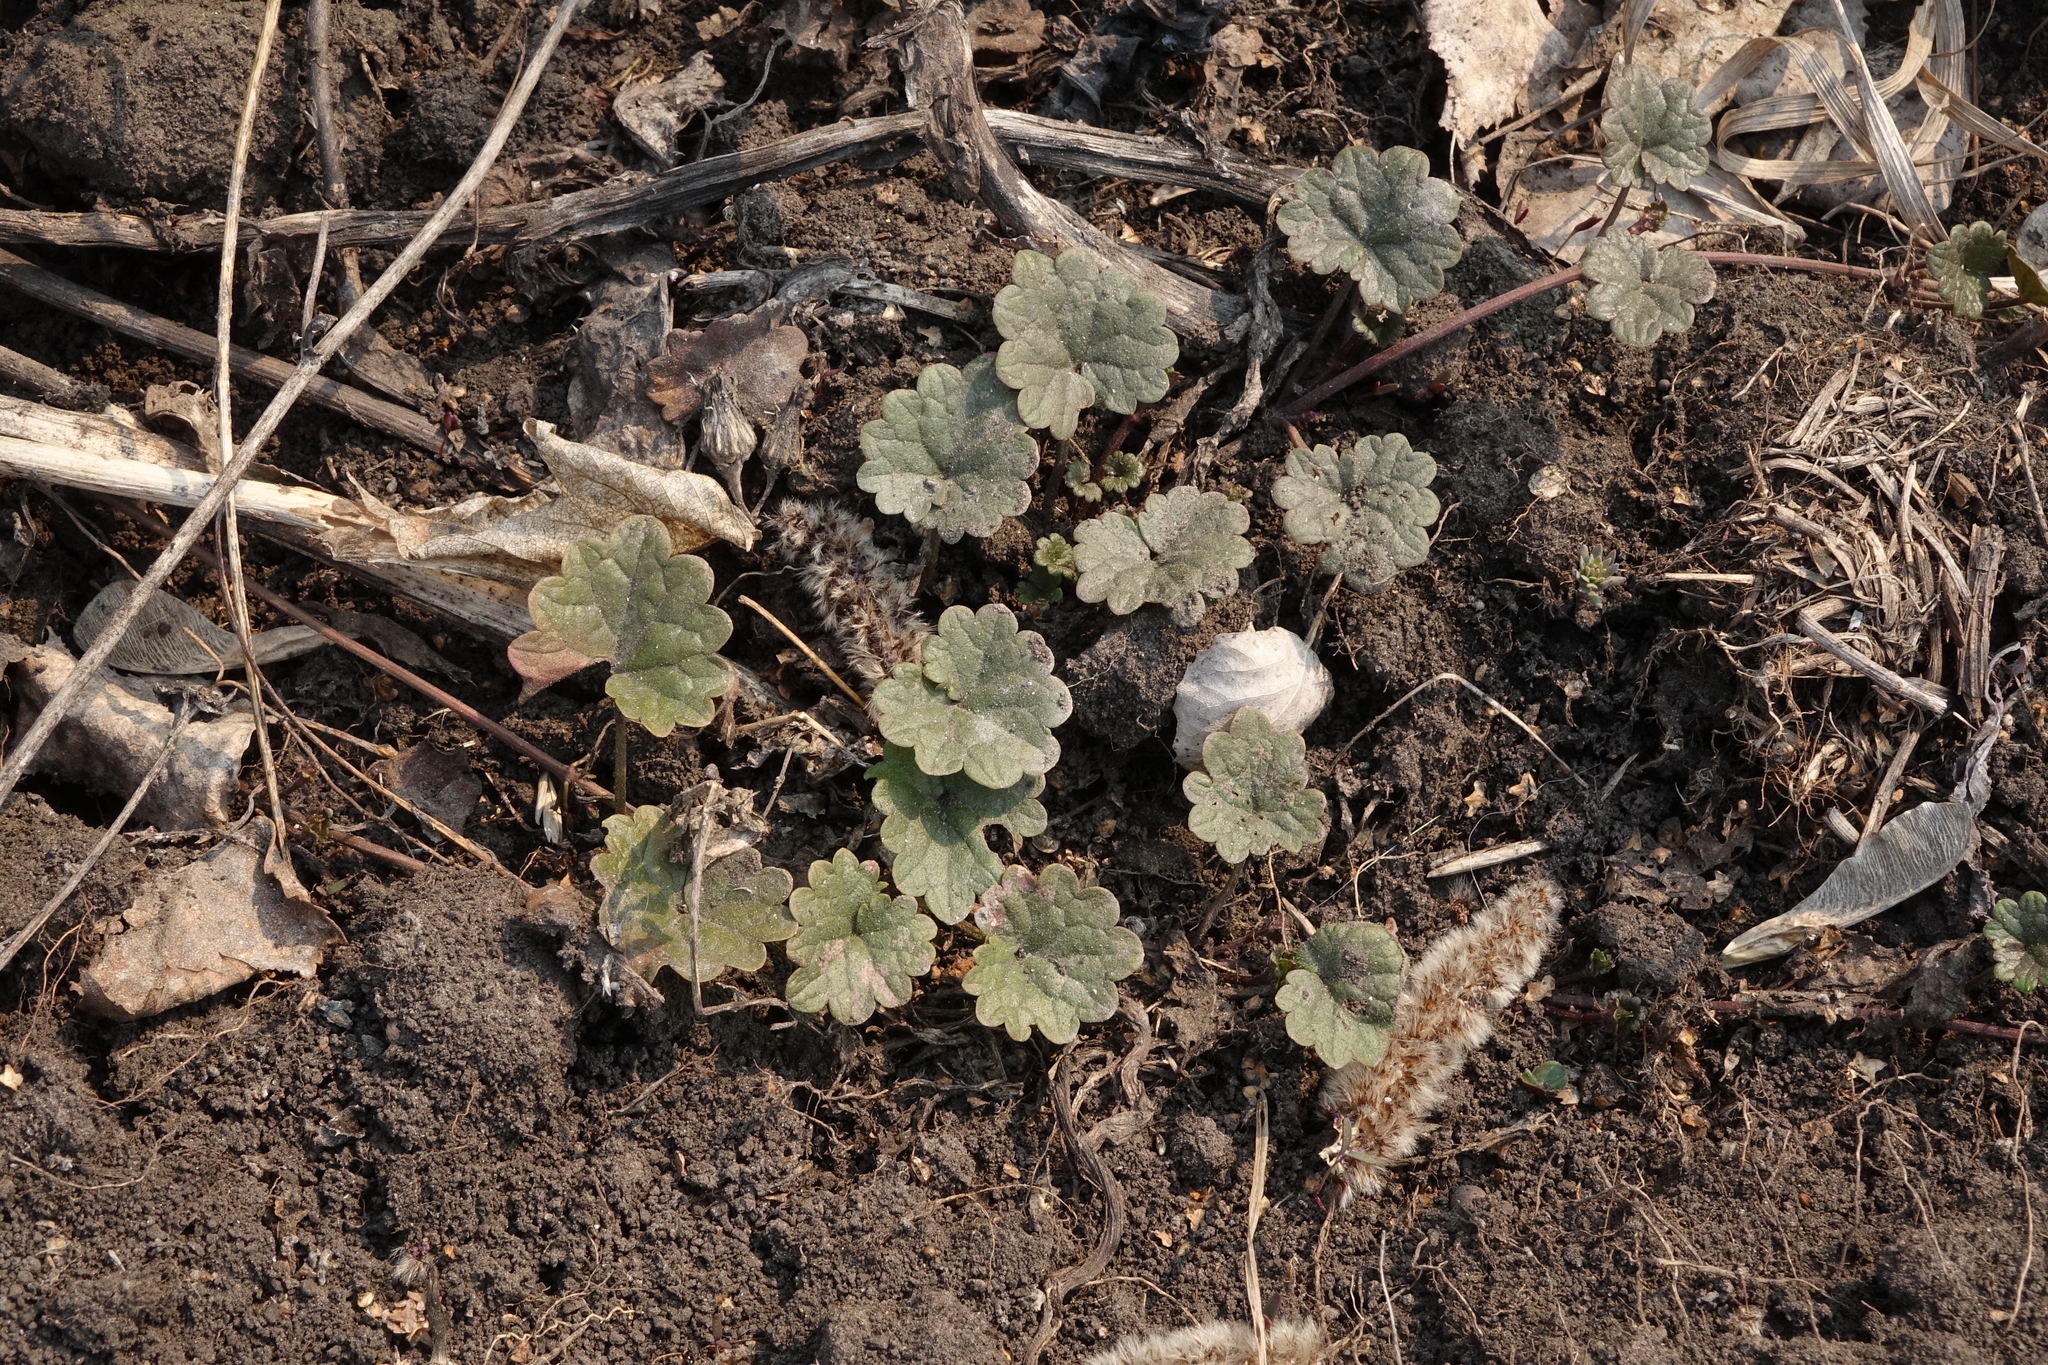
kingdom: Plantae
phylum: Tracheophyta
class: Magnoliopsida
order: Lamiales
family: Lamiaceae
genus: Glechoma
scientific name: Glechoma hederacea
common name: Ground ivy
